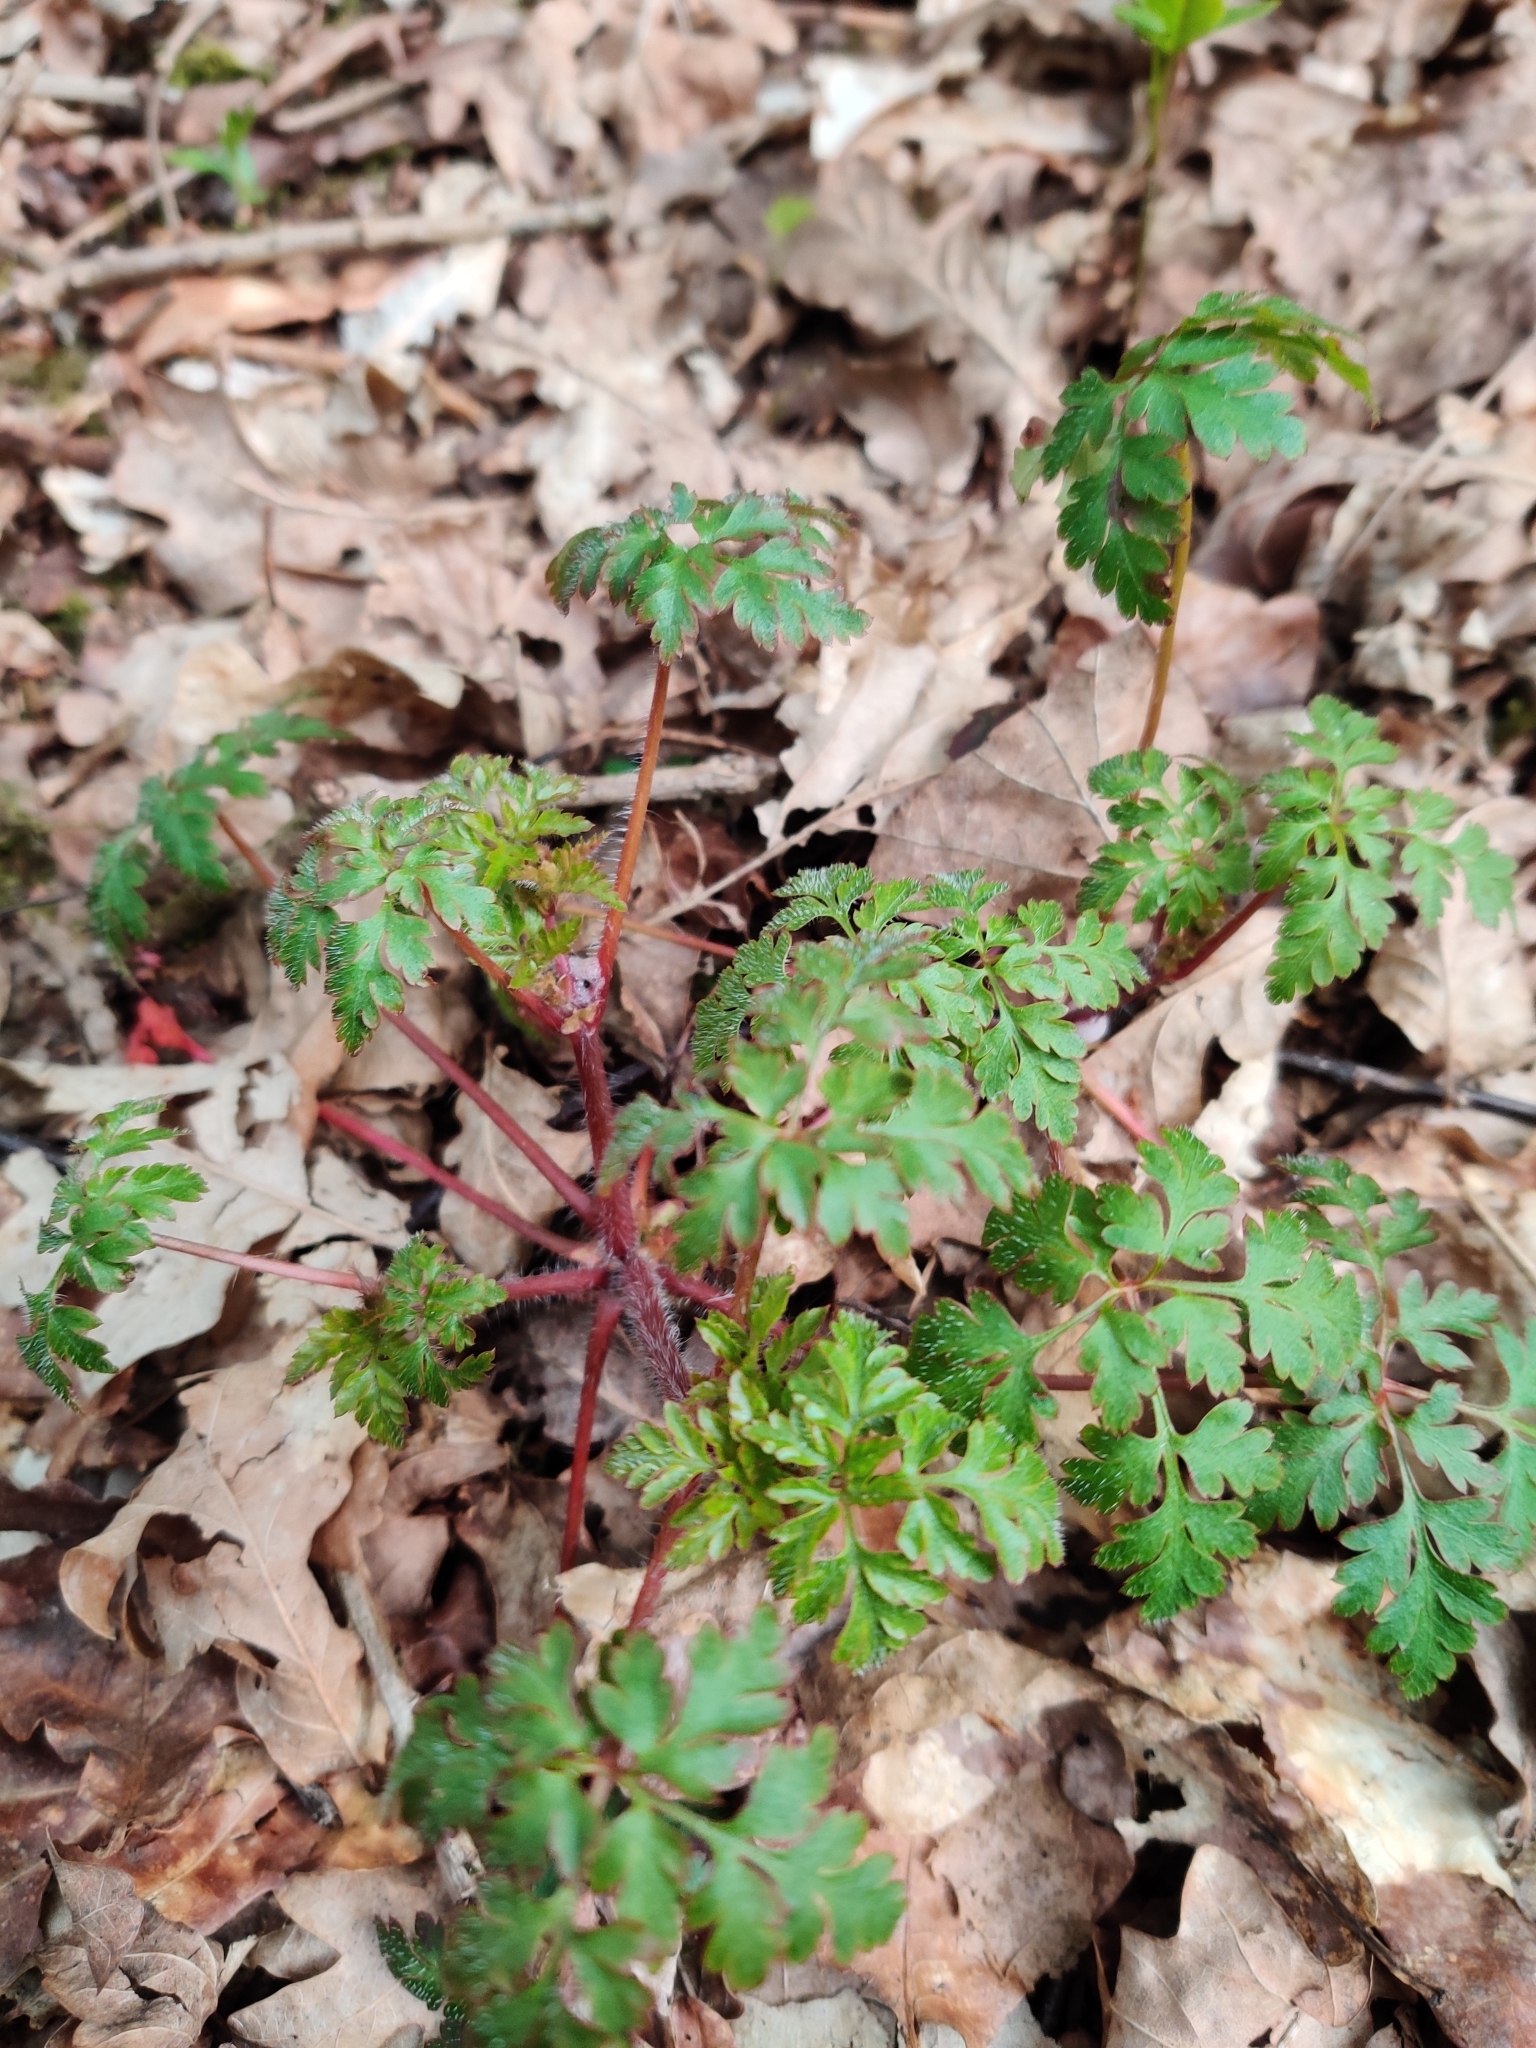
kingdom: Plantae
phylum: Tracheophyta
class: Magnoliopsida
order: Geraniales
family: Geraniaceae
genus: Geranium
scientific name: Geranium robertianum
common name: Herb-robert
